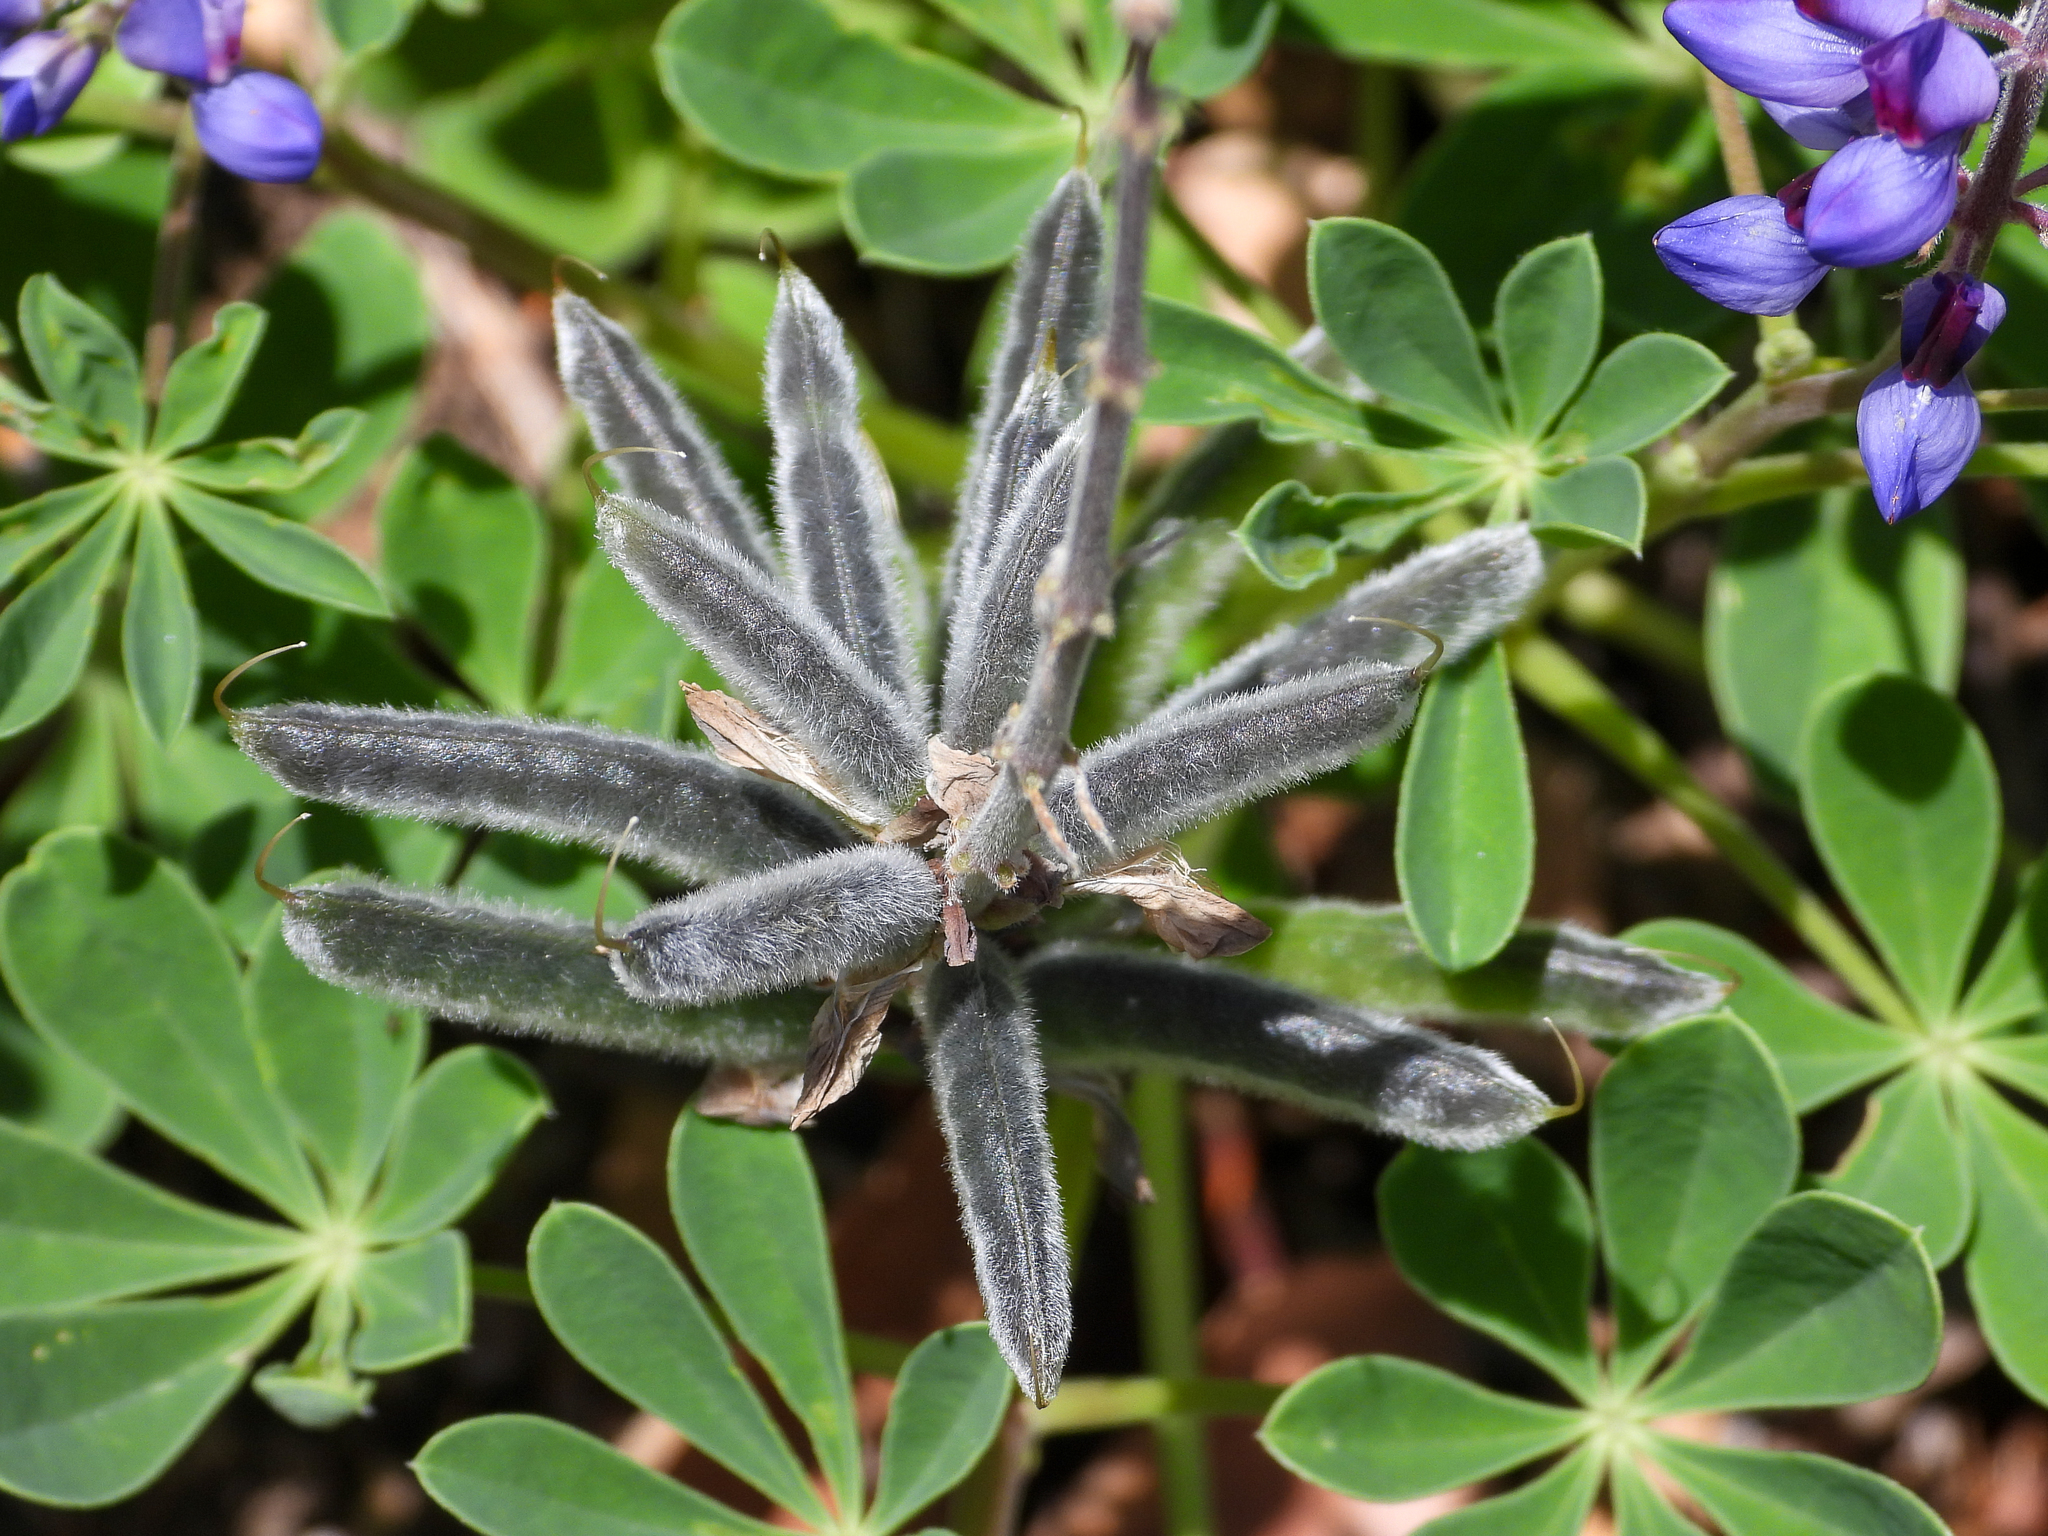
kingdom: Plantae
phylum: Tracheophyta
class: Magnoliopsida
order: Fabales
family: Fabaceae
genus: Lupinus
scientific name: Lupinus succulentus
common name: Arroyo lupine
